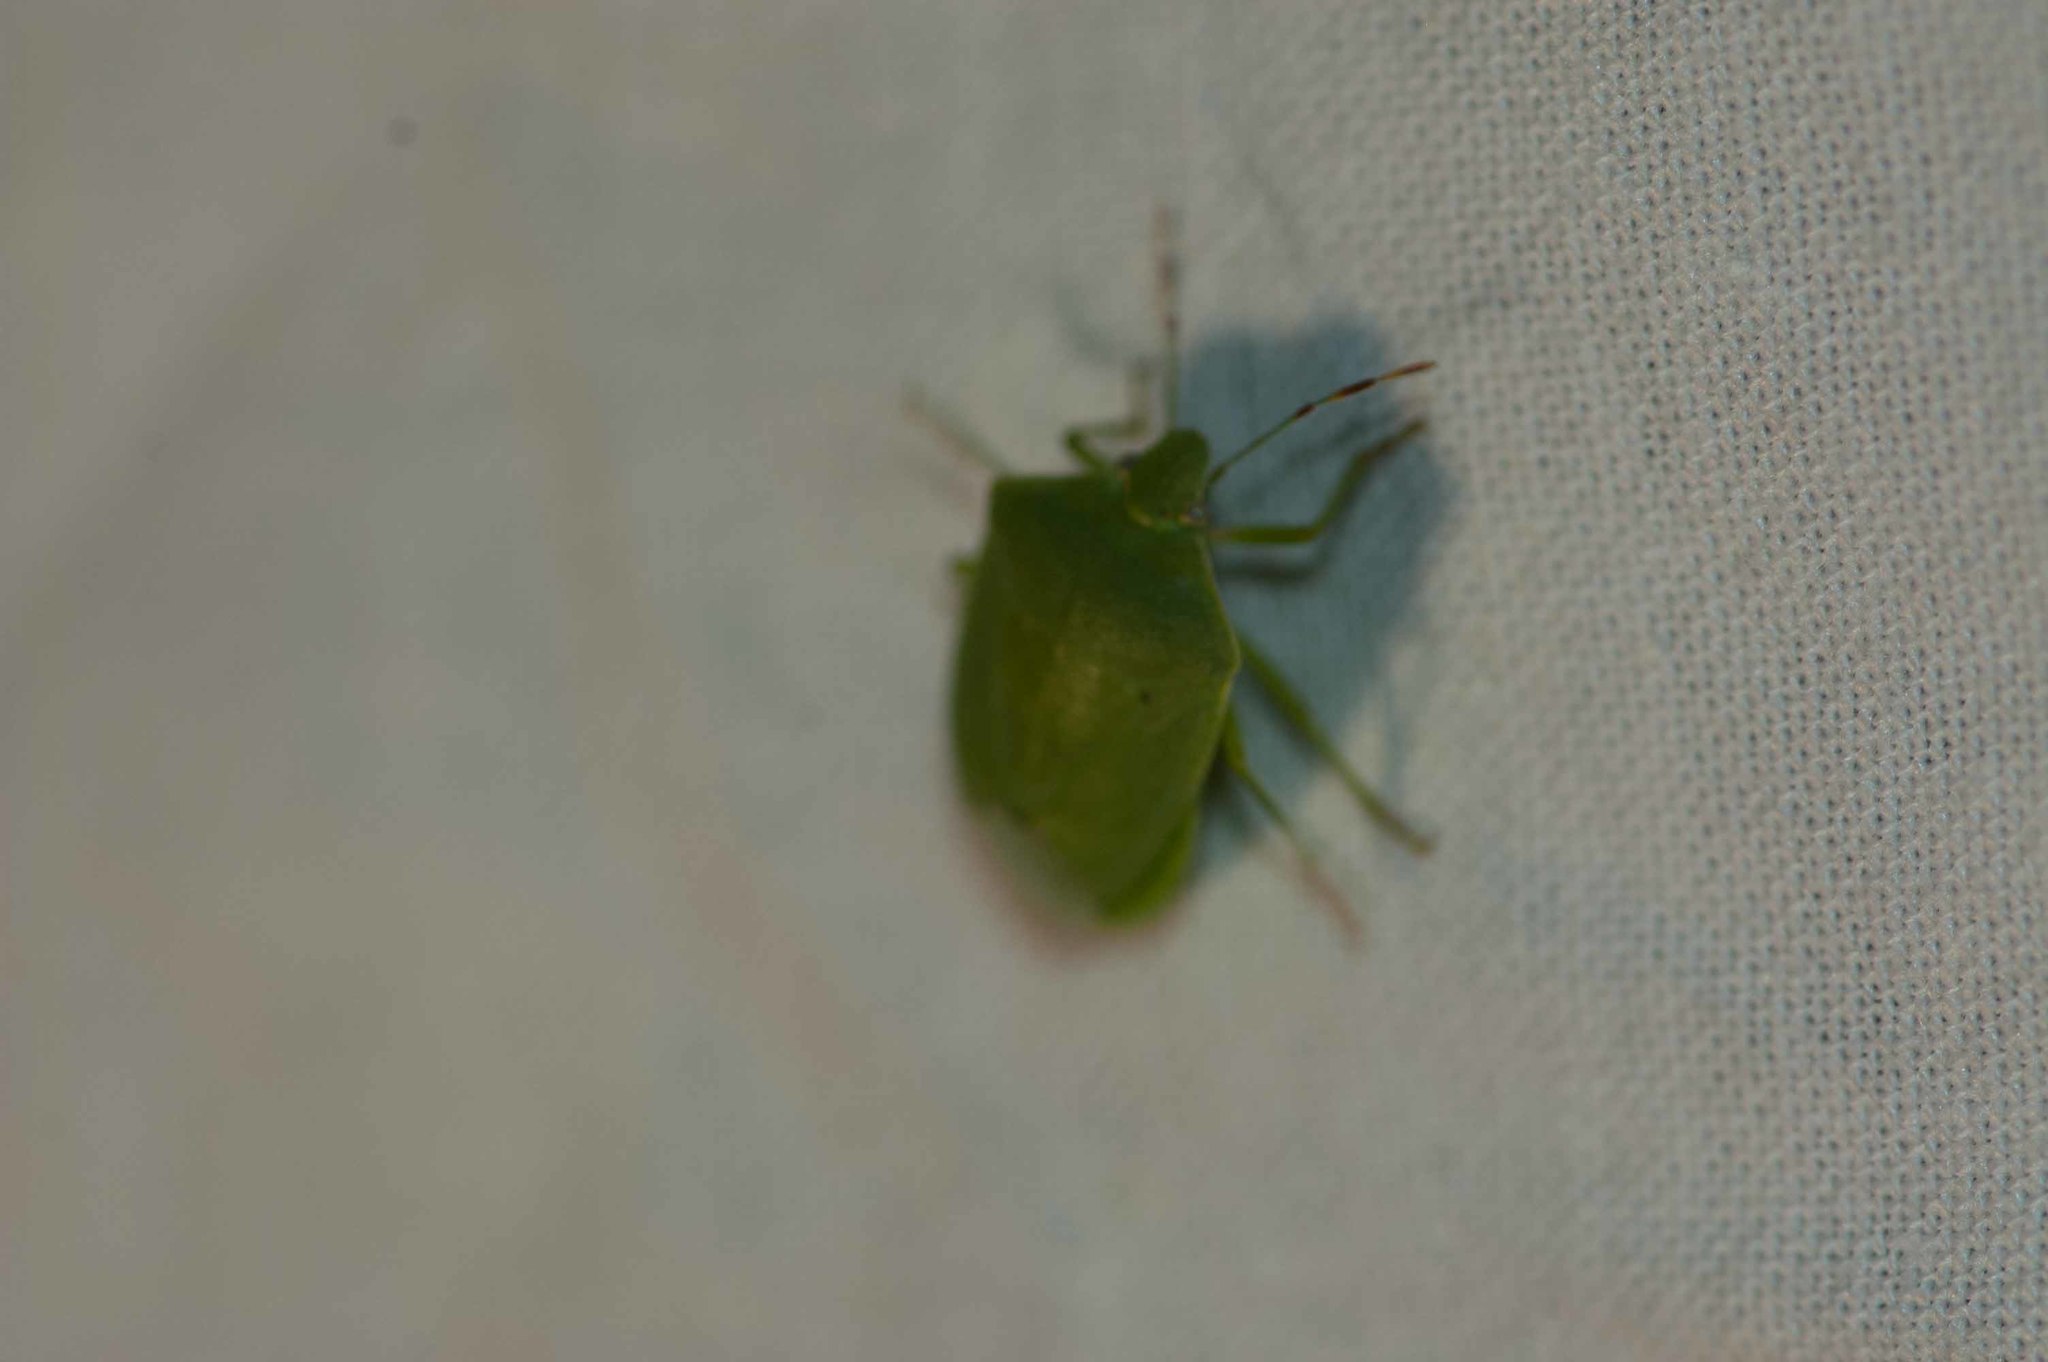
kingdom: Animalia
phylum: Arthropoda
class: Insecta
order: Hemiptera
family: Pentatomidae
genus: Nezara
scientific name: Nezara viridula
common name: Southern green stink bug
